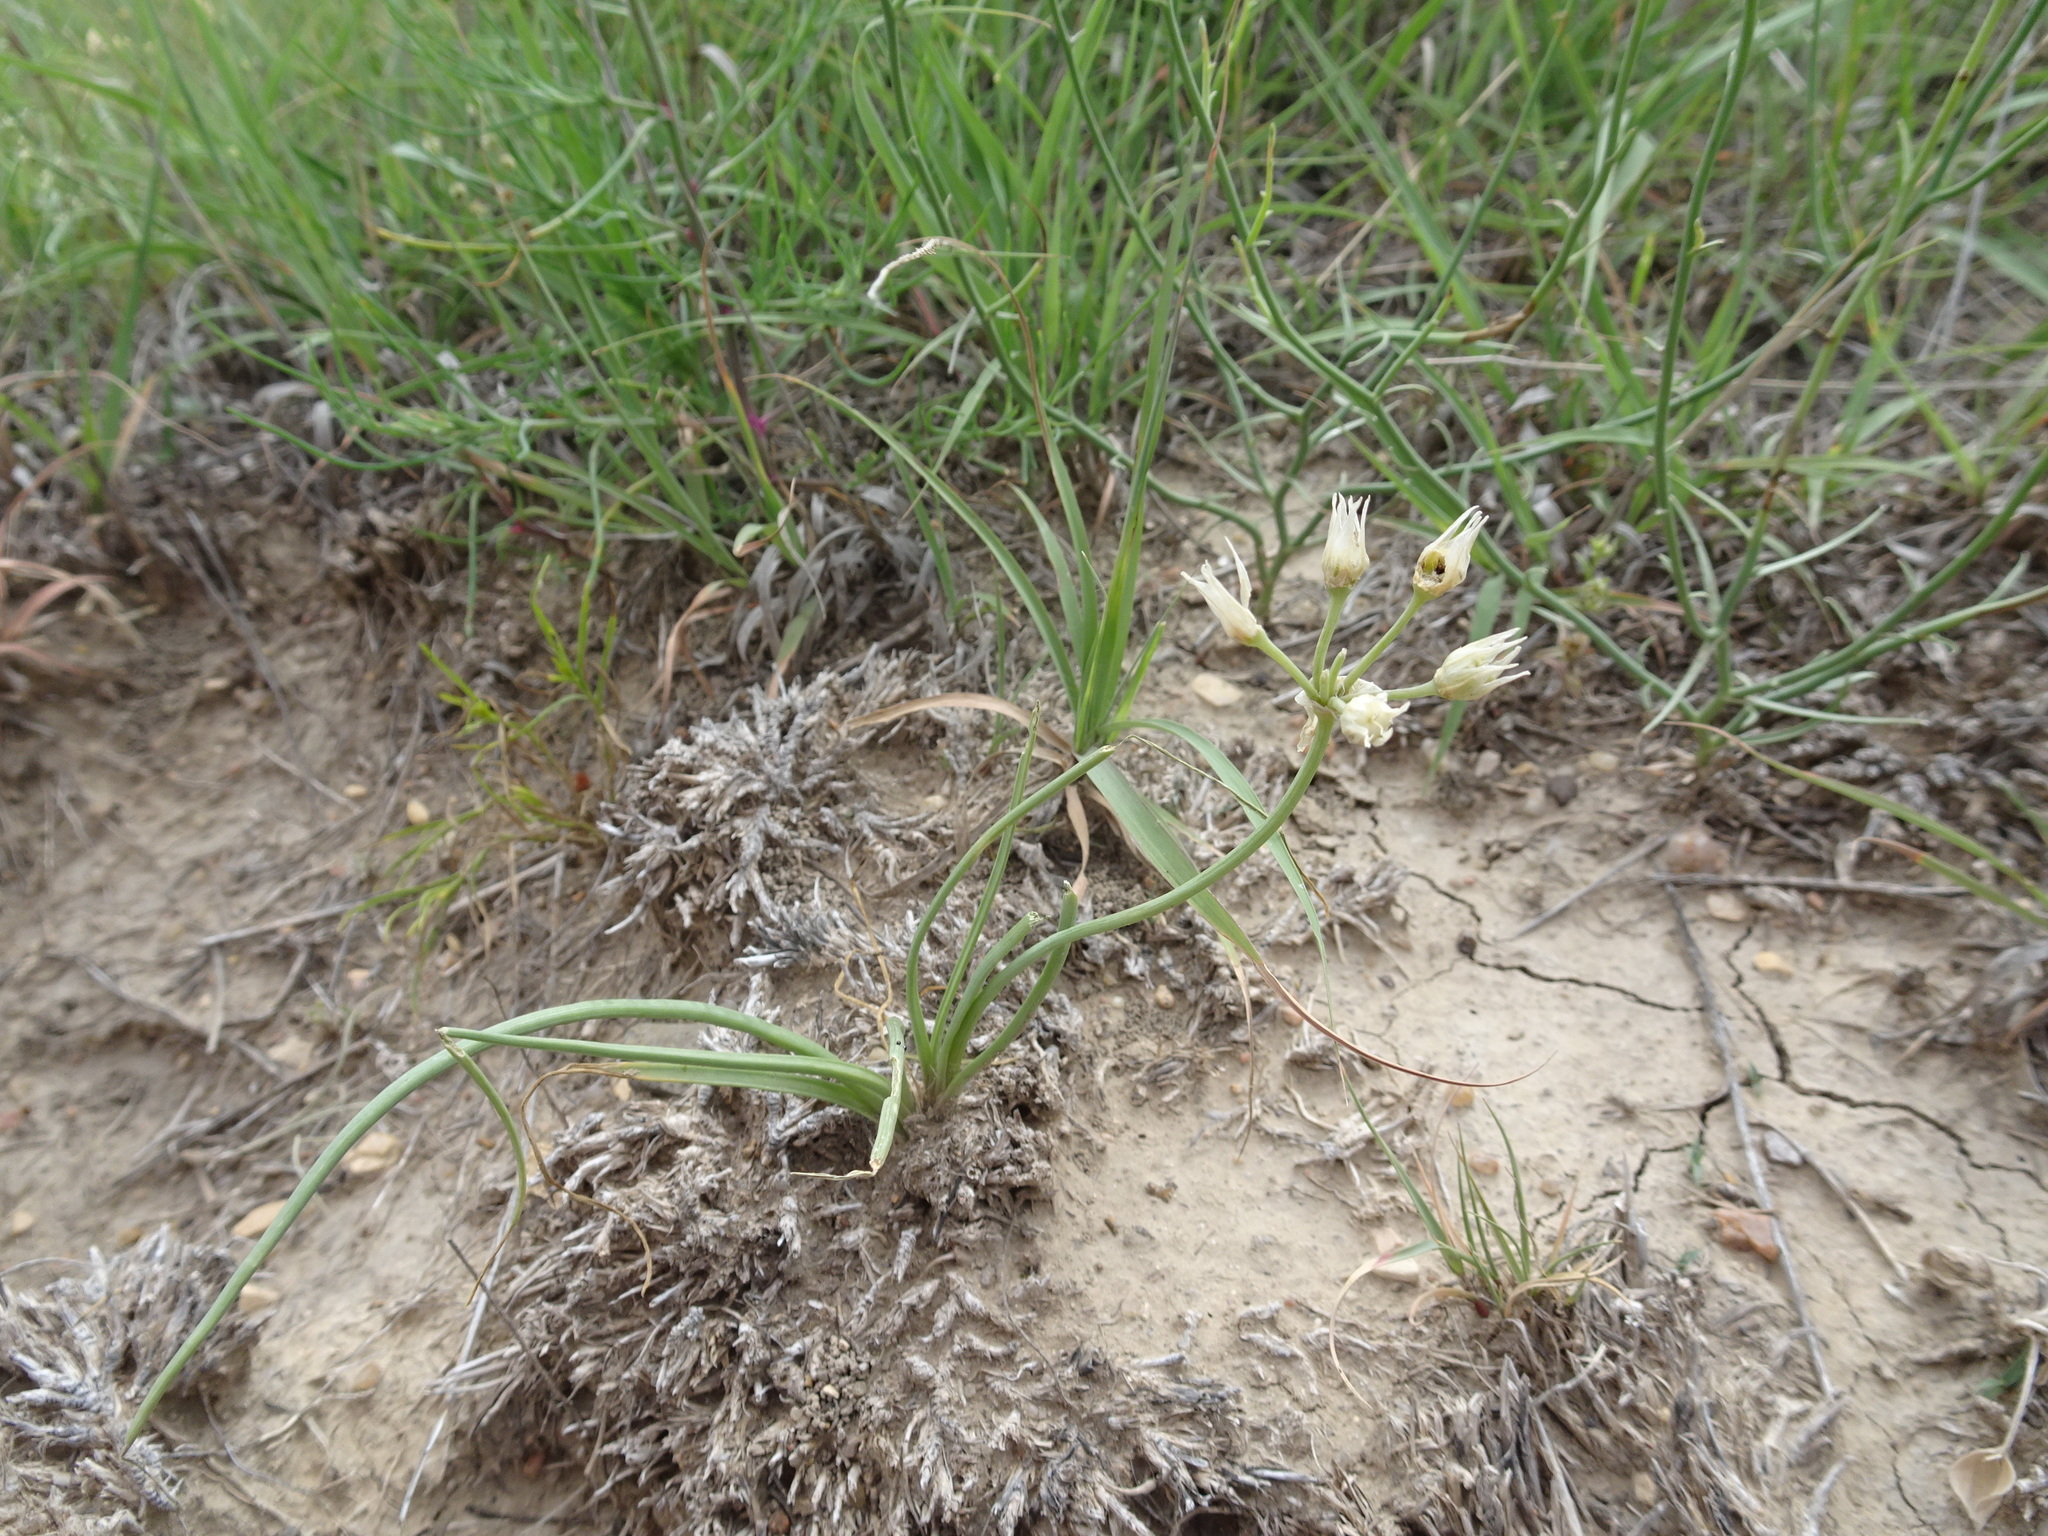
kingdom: Plantae
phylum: Tracheophyta
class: Liliopsida
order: Asparagales
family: Amaryllidaceae
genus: Allium
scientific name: Allium drummondii
